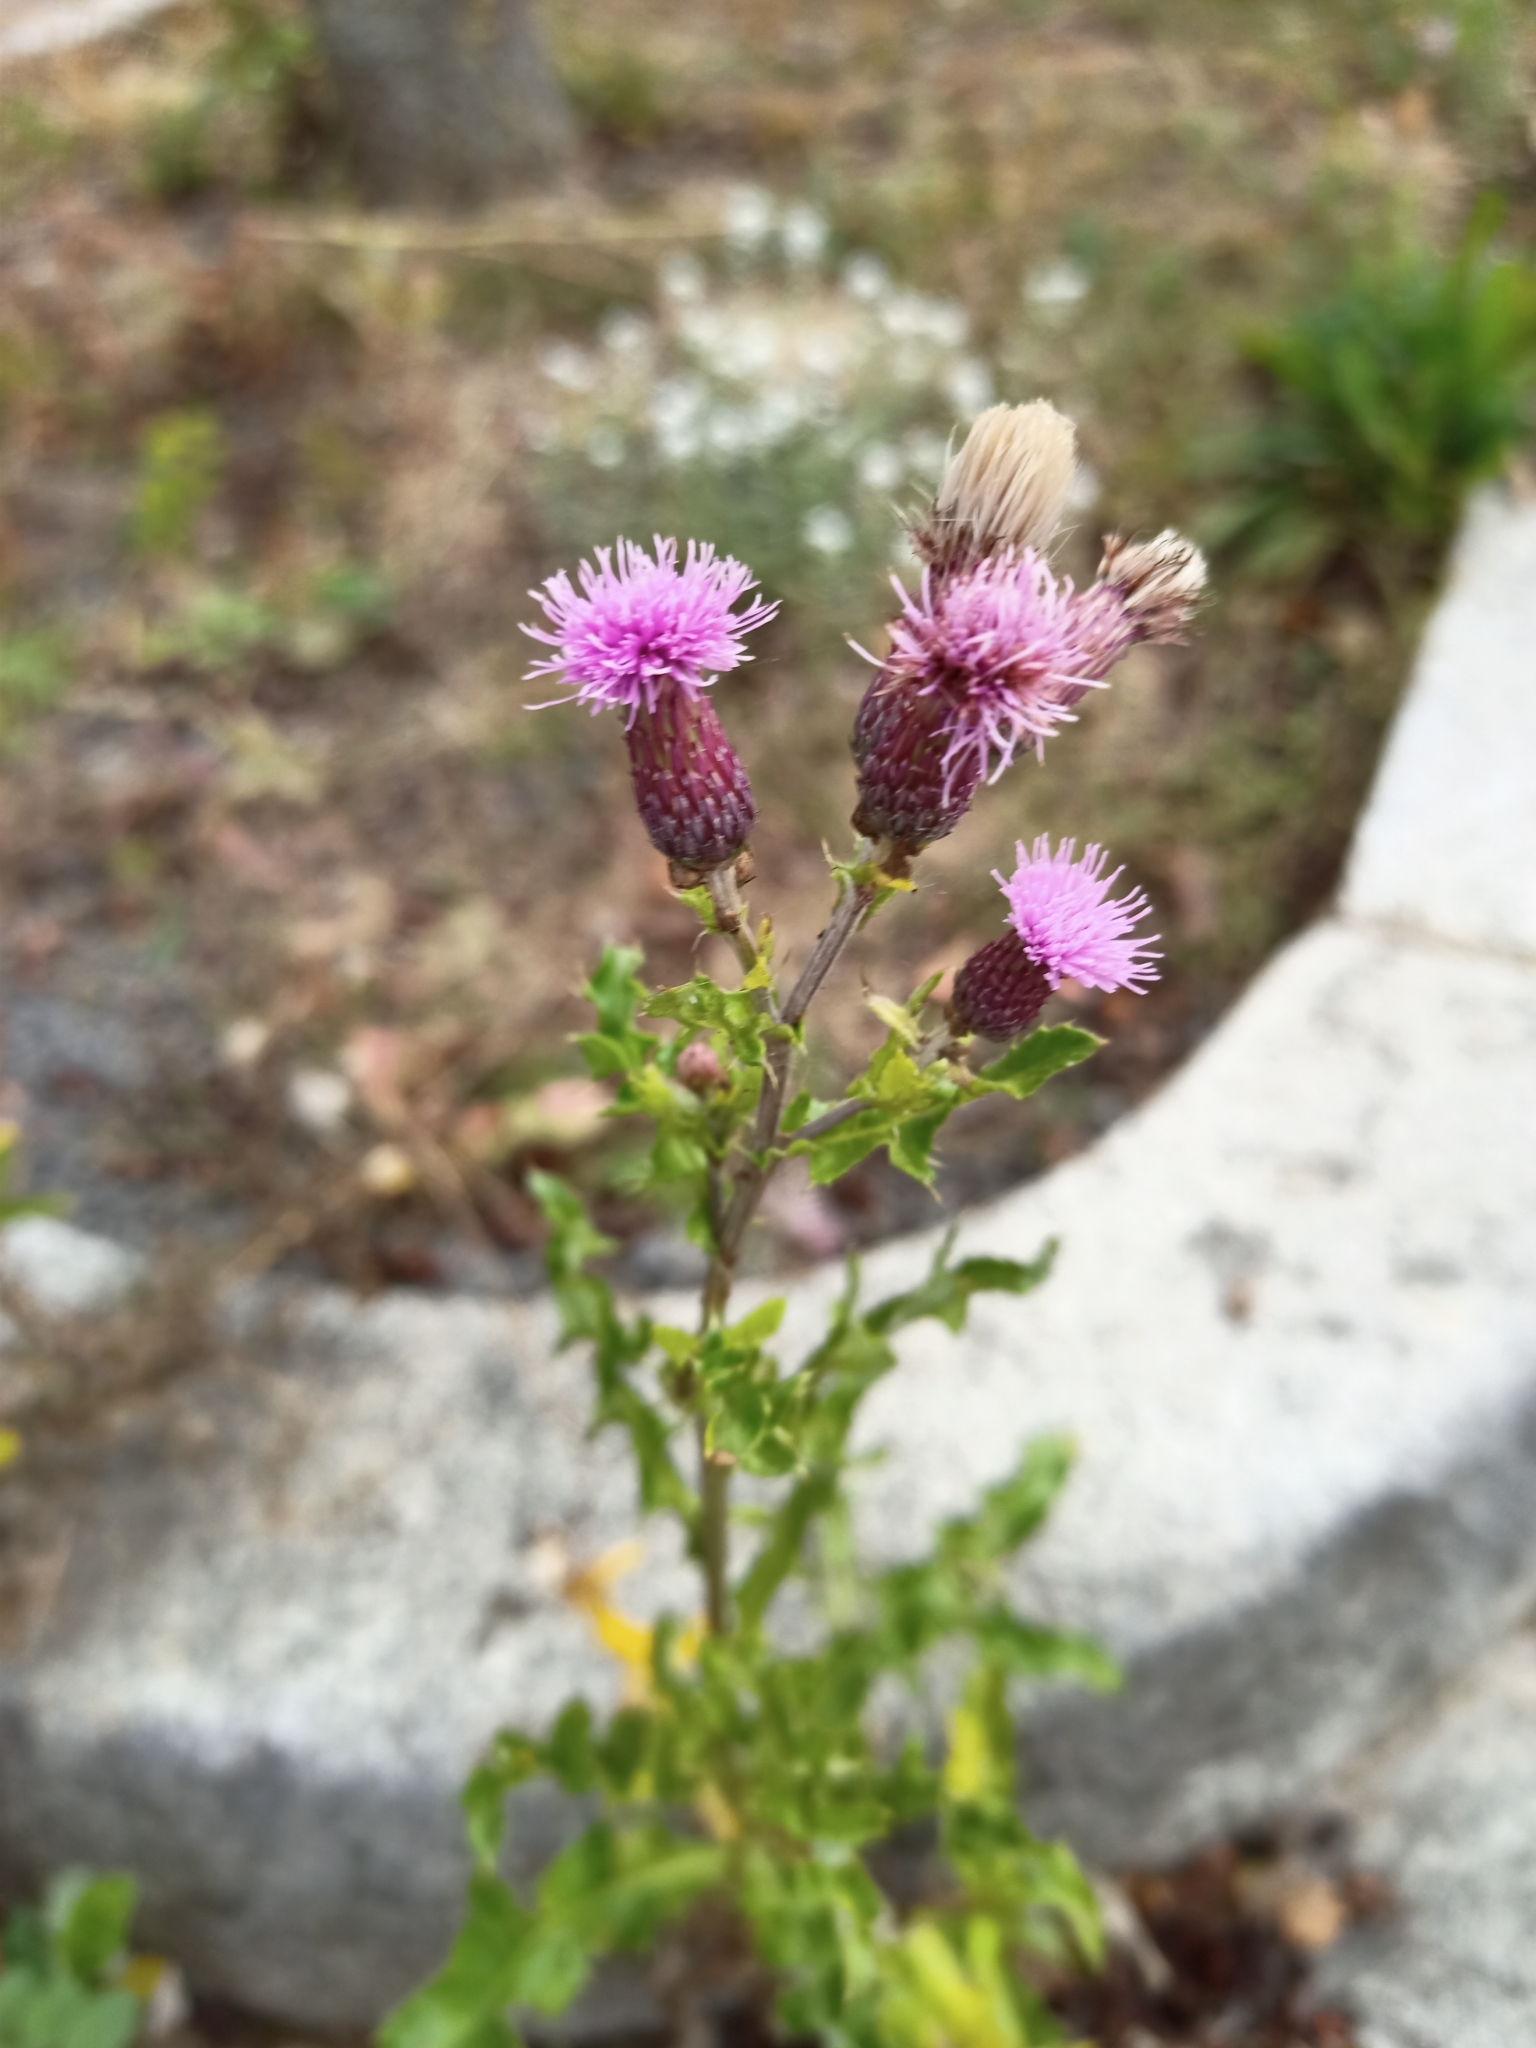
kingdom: Plantae
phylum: Tracheophyta
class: Magnoliopsida
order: Asterales
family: Asteraceae
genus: Cirsium
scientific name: Cirsium arvense
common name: Creeping thistle
